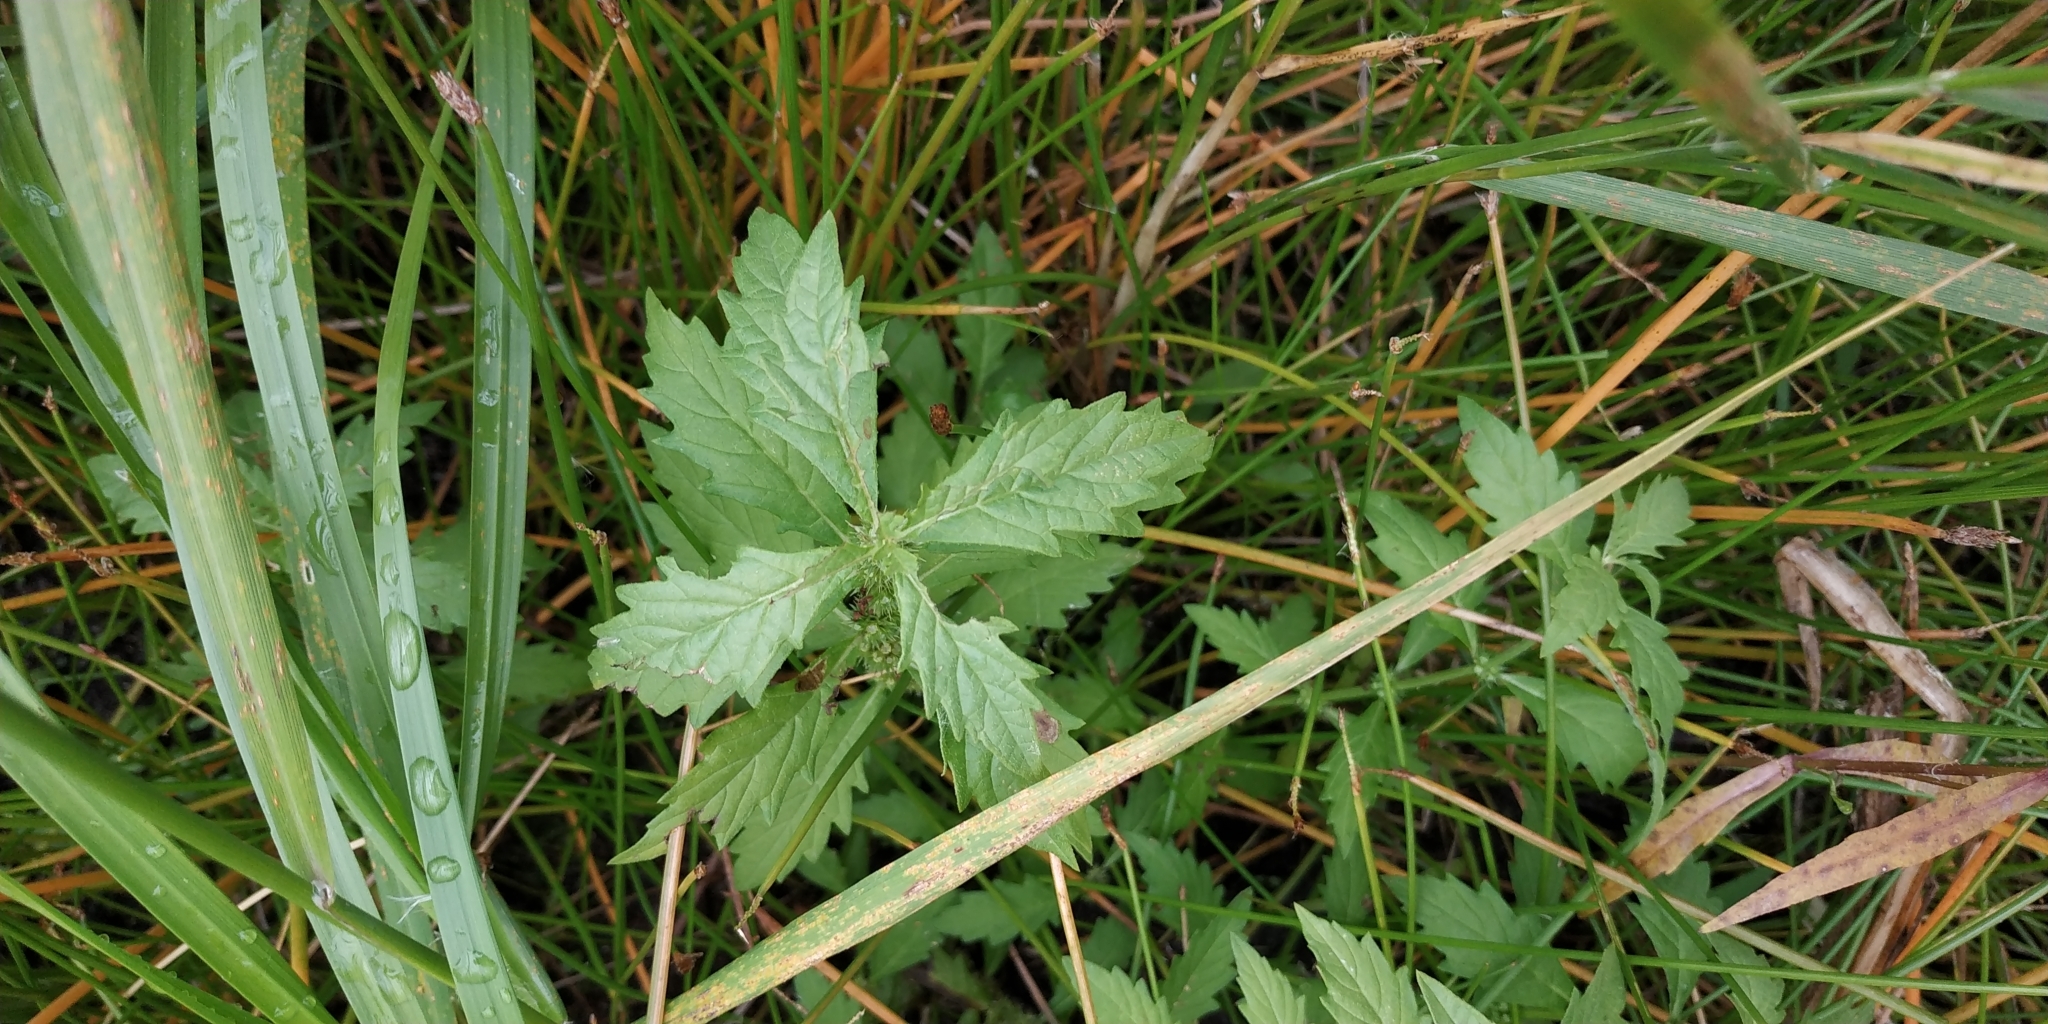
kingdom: Plantae
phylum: Tracheophyta
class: Magnoliopsida
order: Lamiales
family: Lamiaceae
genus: Lycopus
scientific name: Lycopus europaeus
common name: European bugleweed
